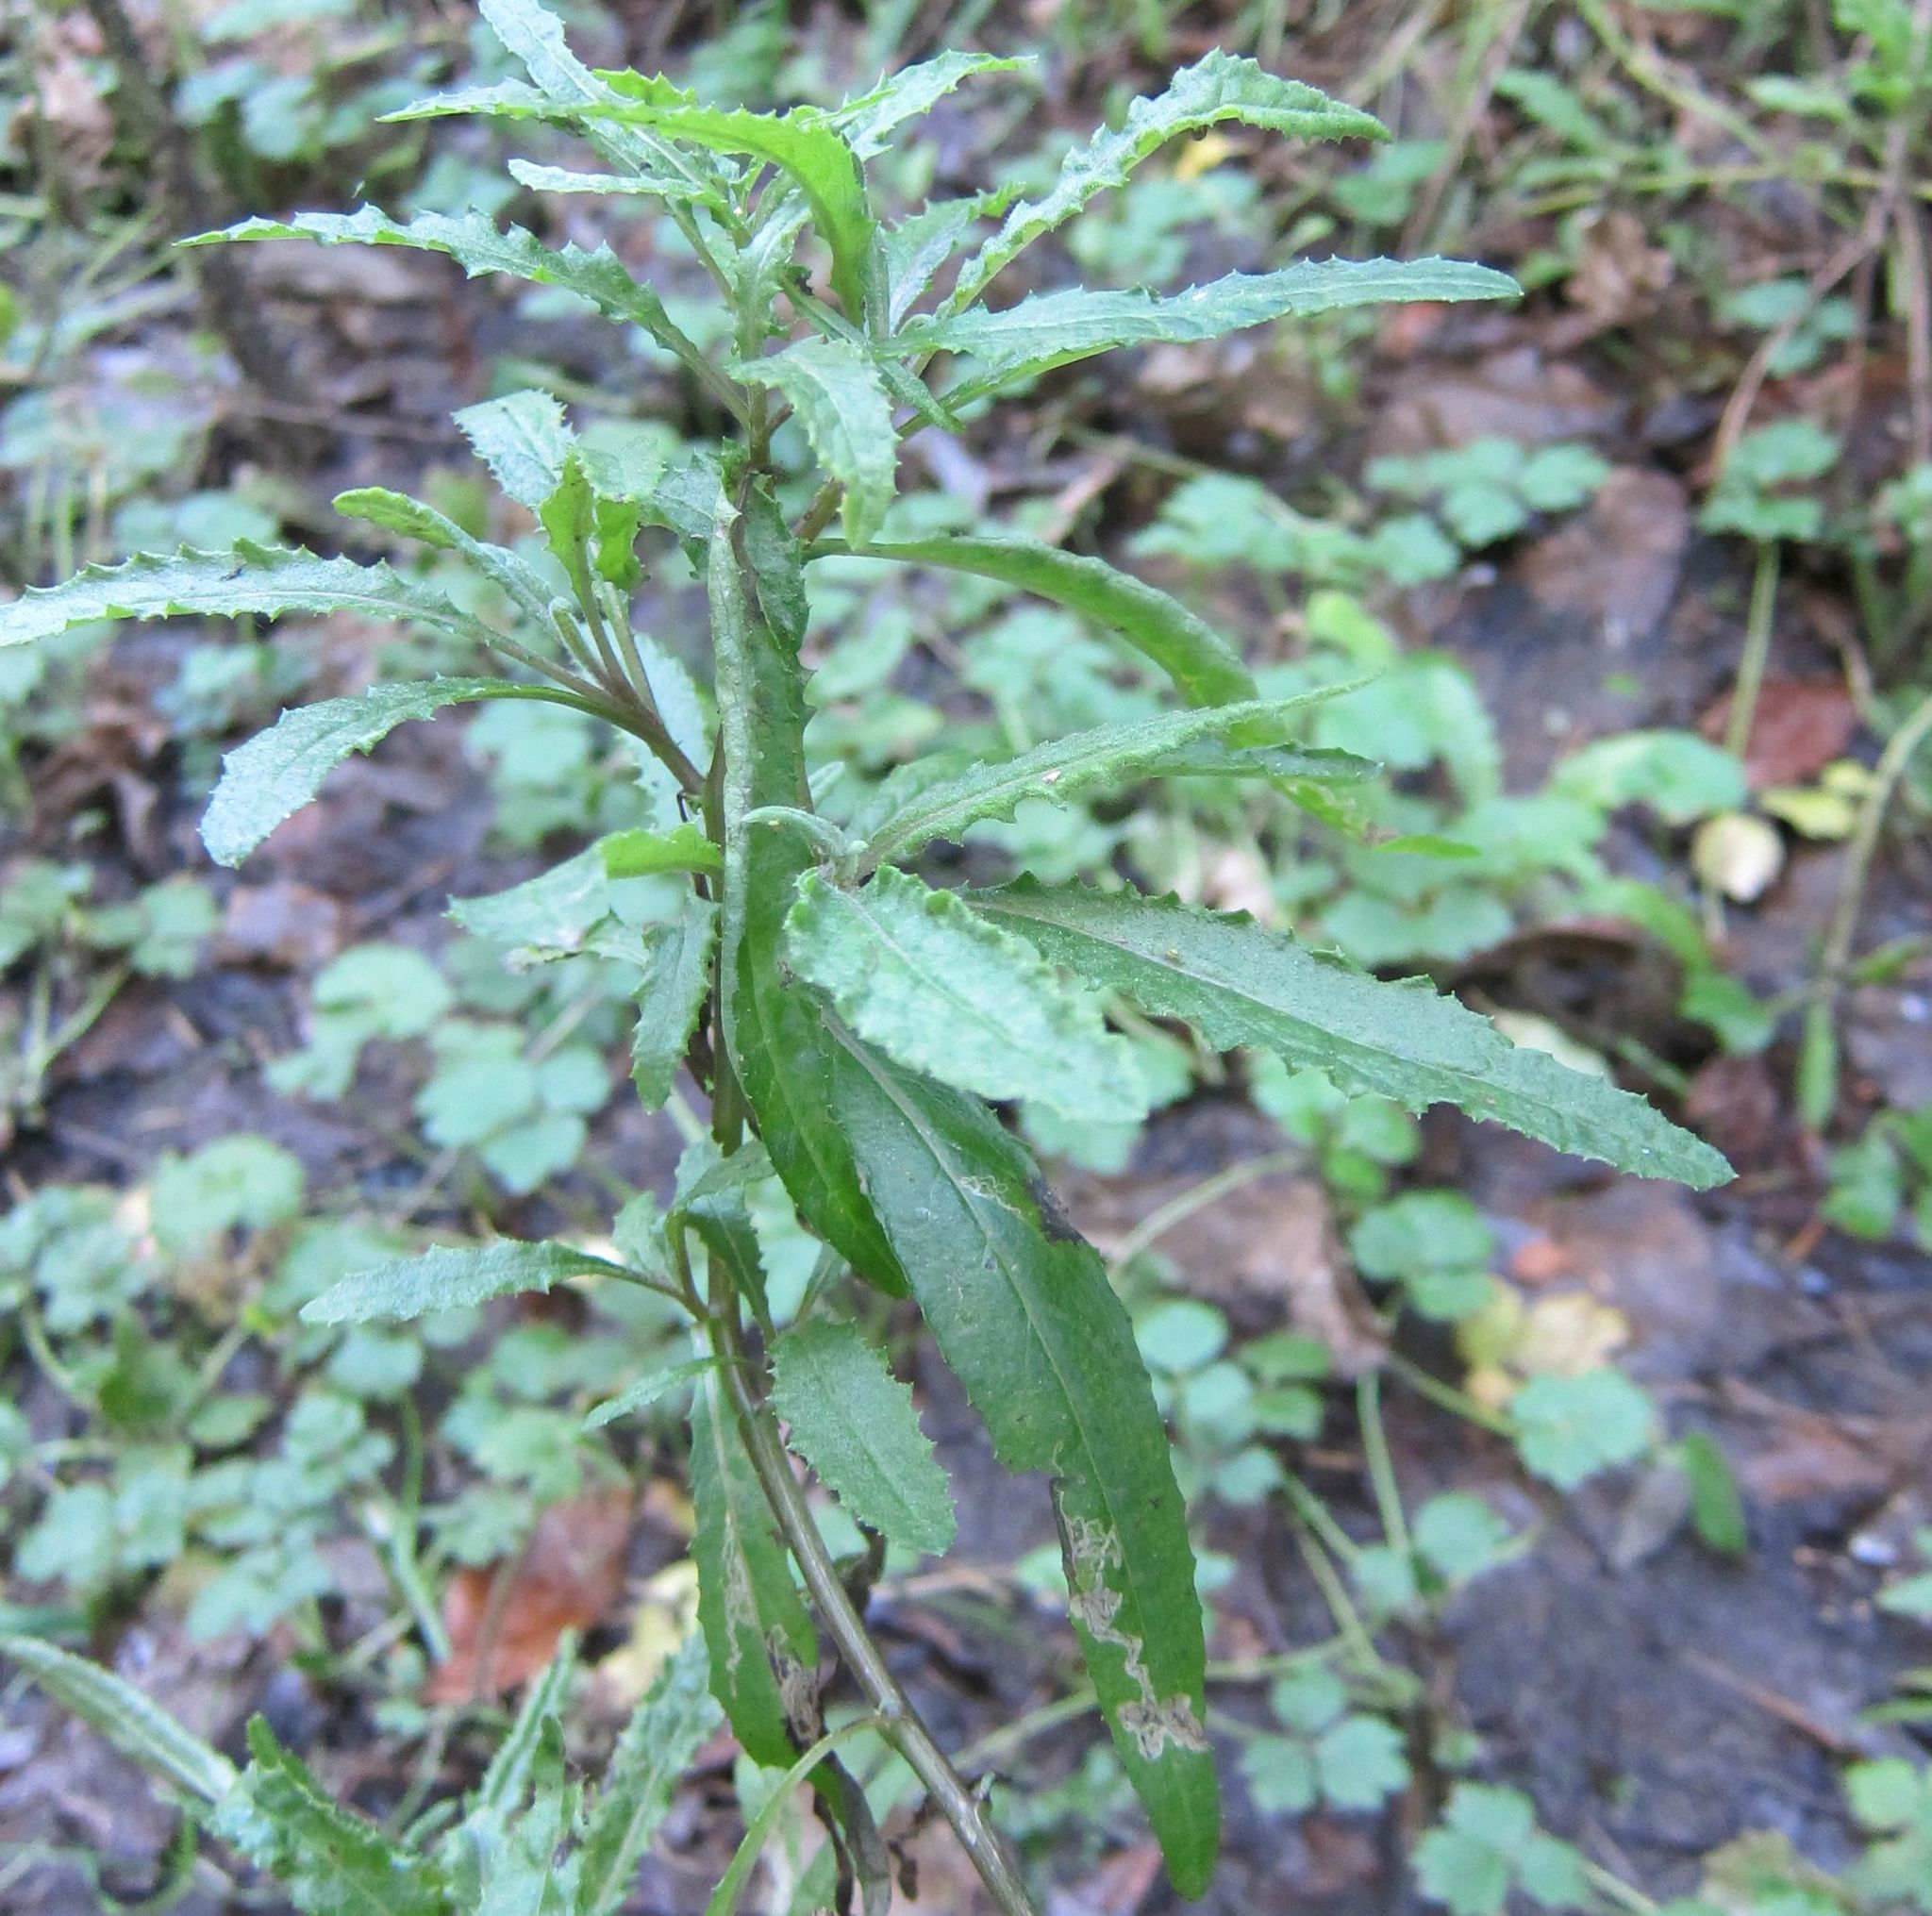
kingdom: Plantae
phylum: Tracheophyta
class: Magnoliopsida
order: Asterales
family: Asteraceae
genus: Senecio
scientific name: Senecio minimus
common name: Toothed fireweed
